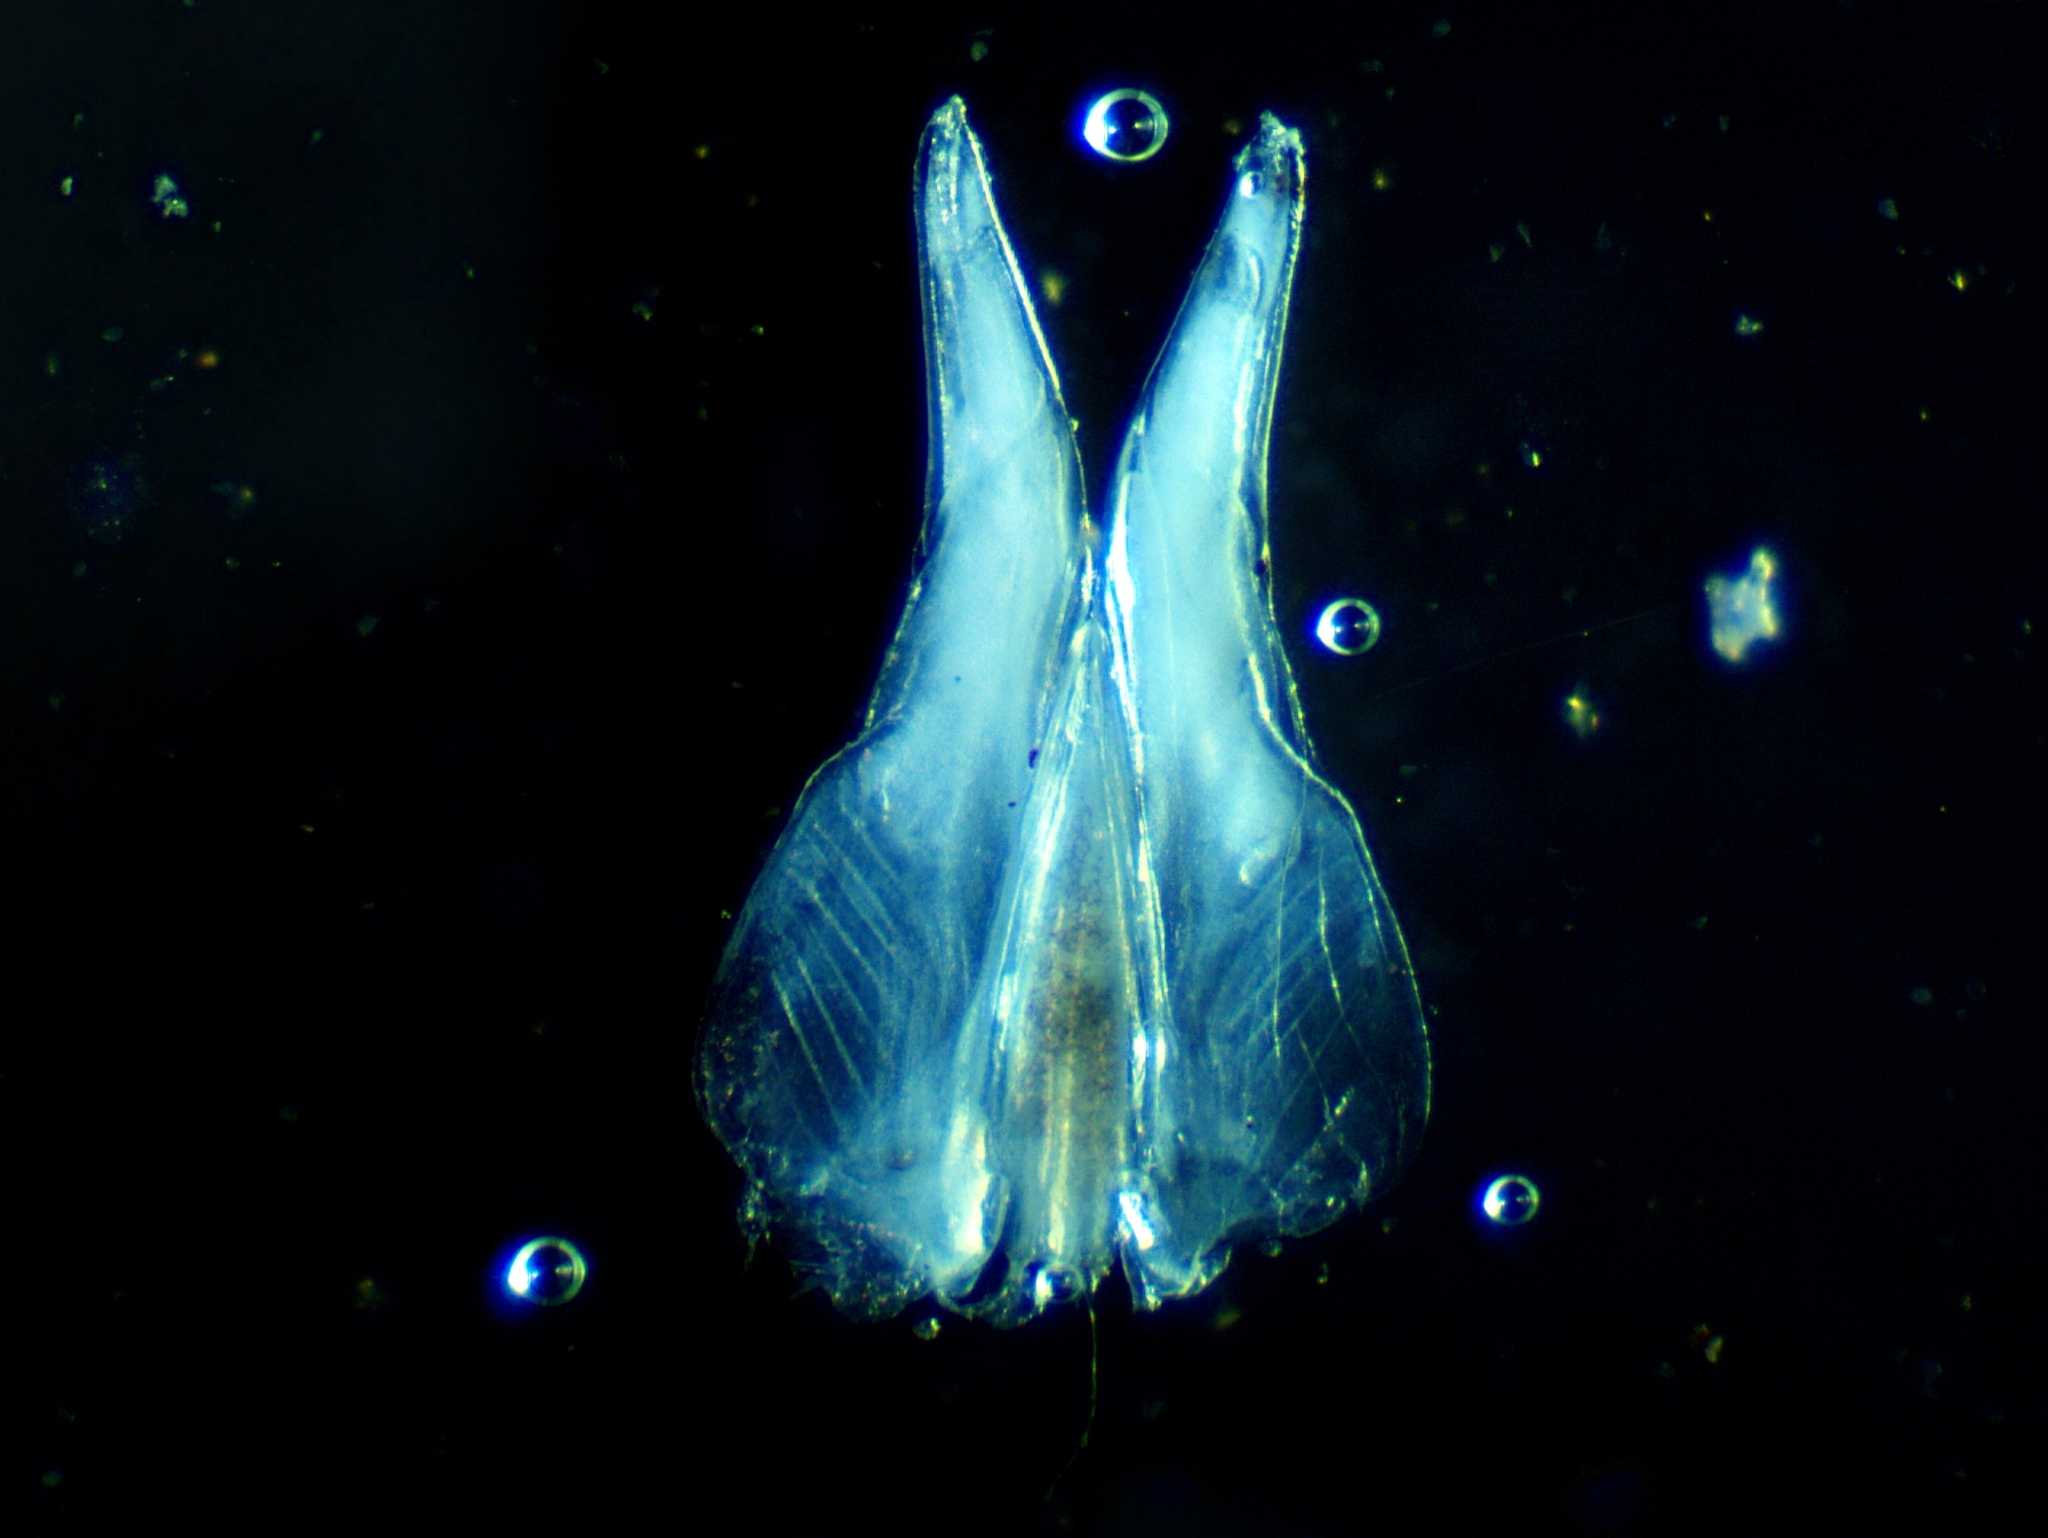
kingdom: Animalia
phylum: Arthropoda
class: Malacostraca
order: Isopoda
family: Philosciidae
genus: Philoscia
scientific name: Philoscia muscorum
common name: Common striped woodlouse
